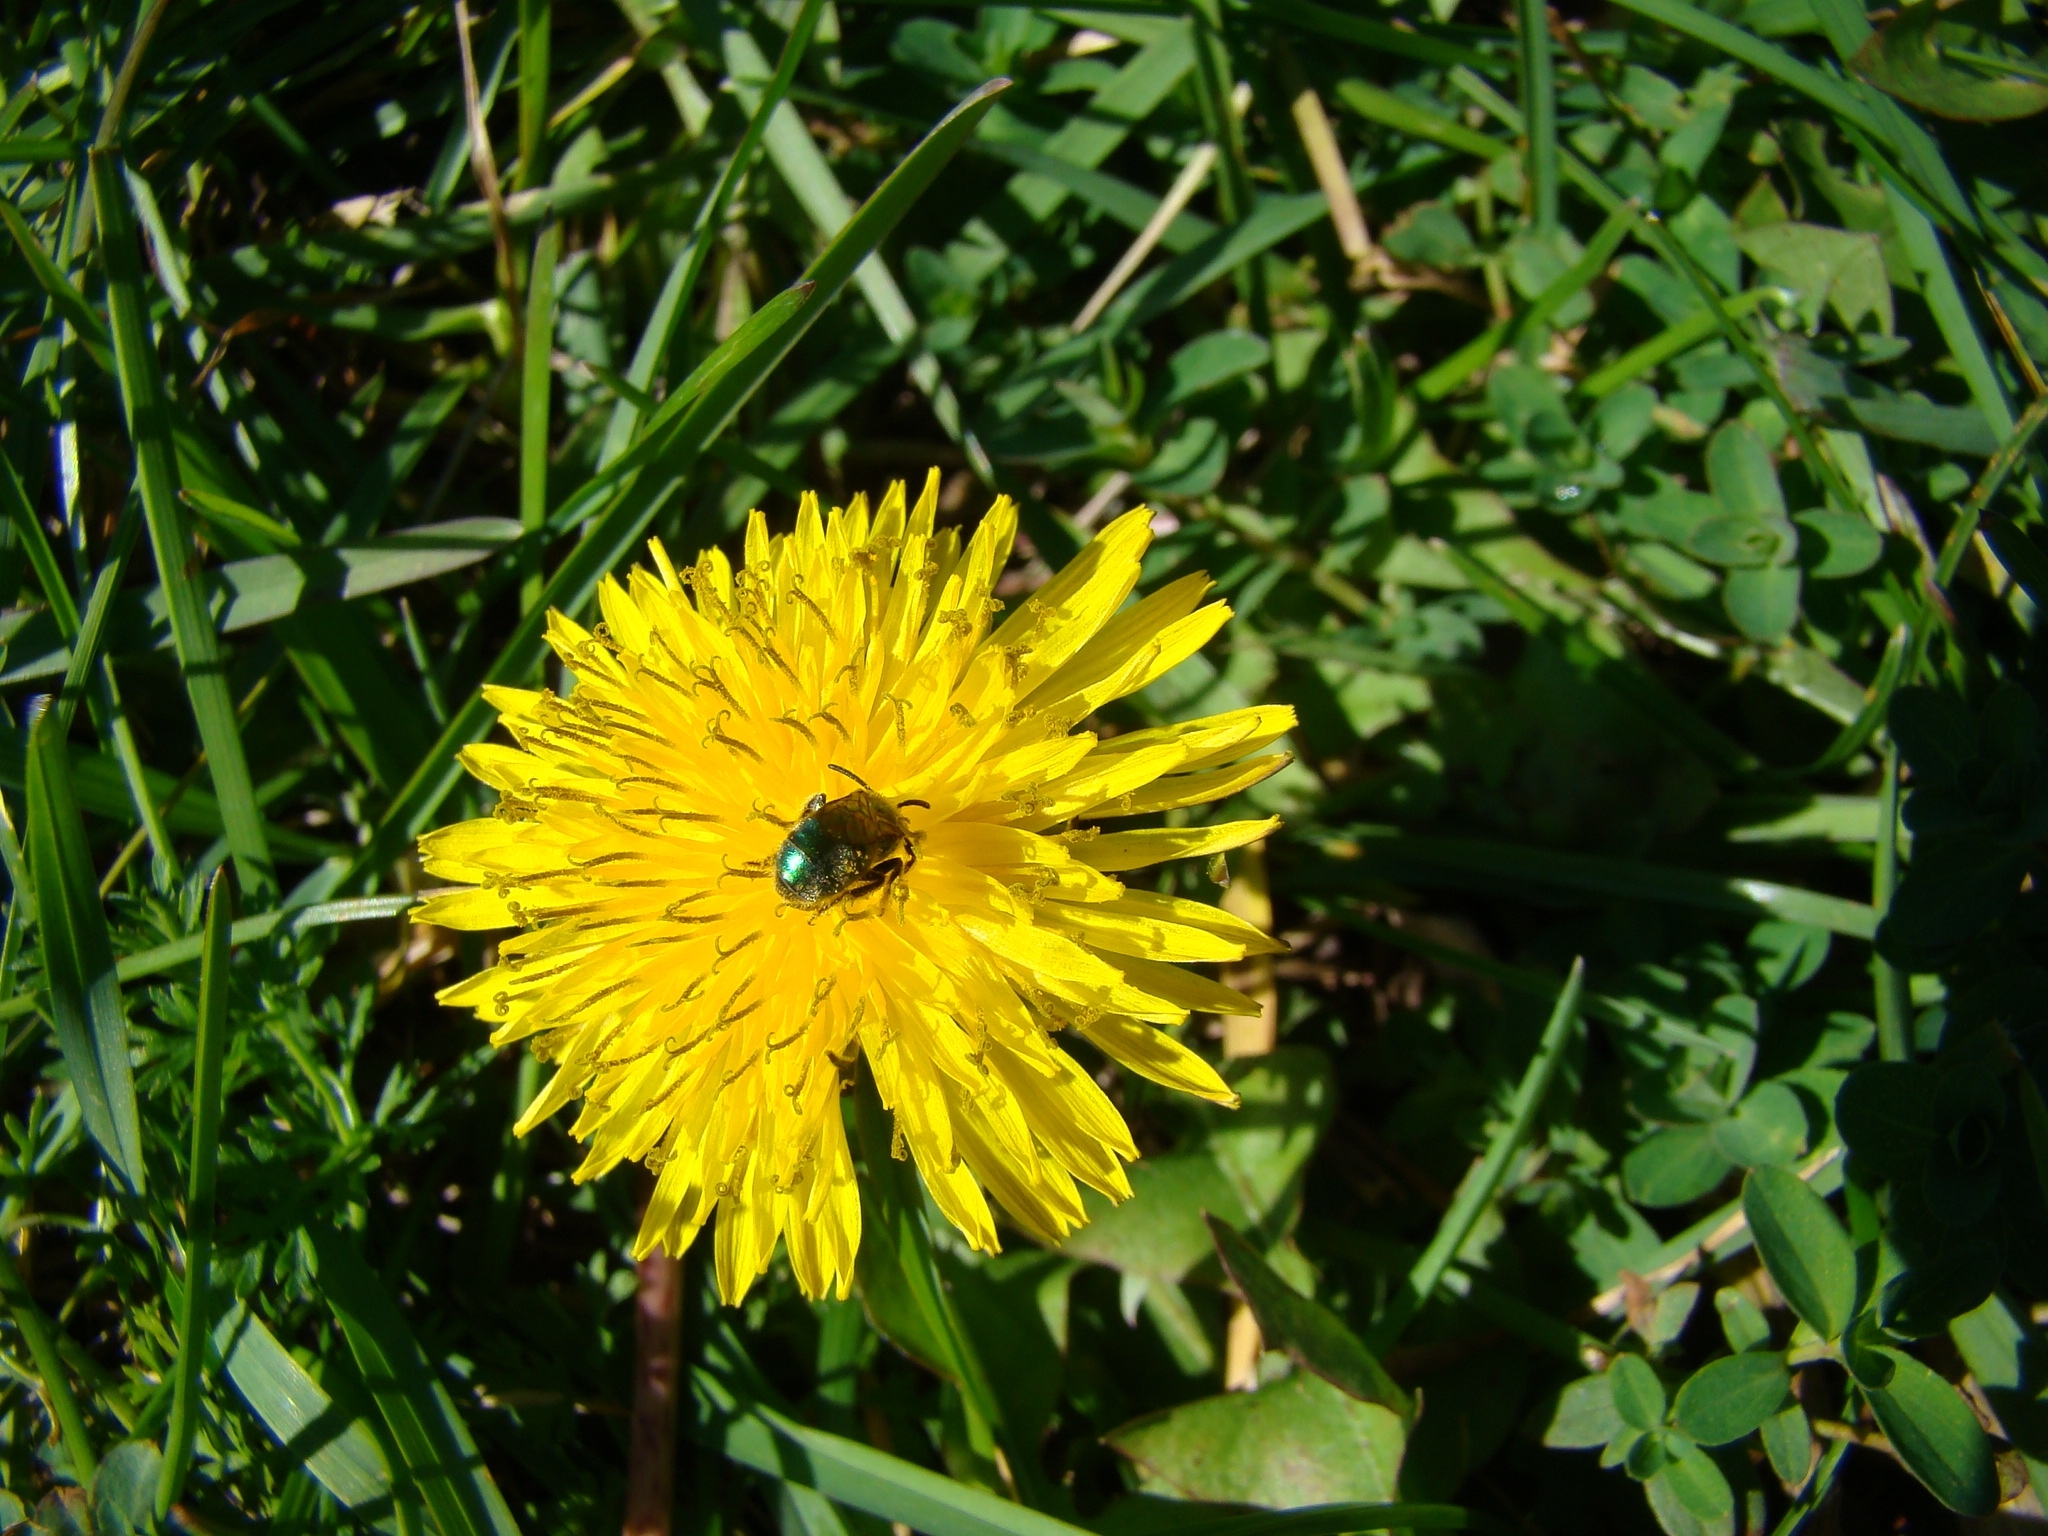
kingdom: Animalia
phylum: Arthropoda
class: Insecta
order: Hymenoptera
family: Halictidae
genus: Augochlorella
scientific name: Augochlorella aurata
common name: Golden sweat bee
